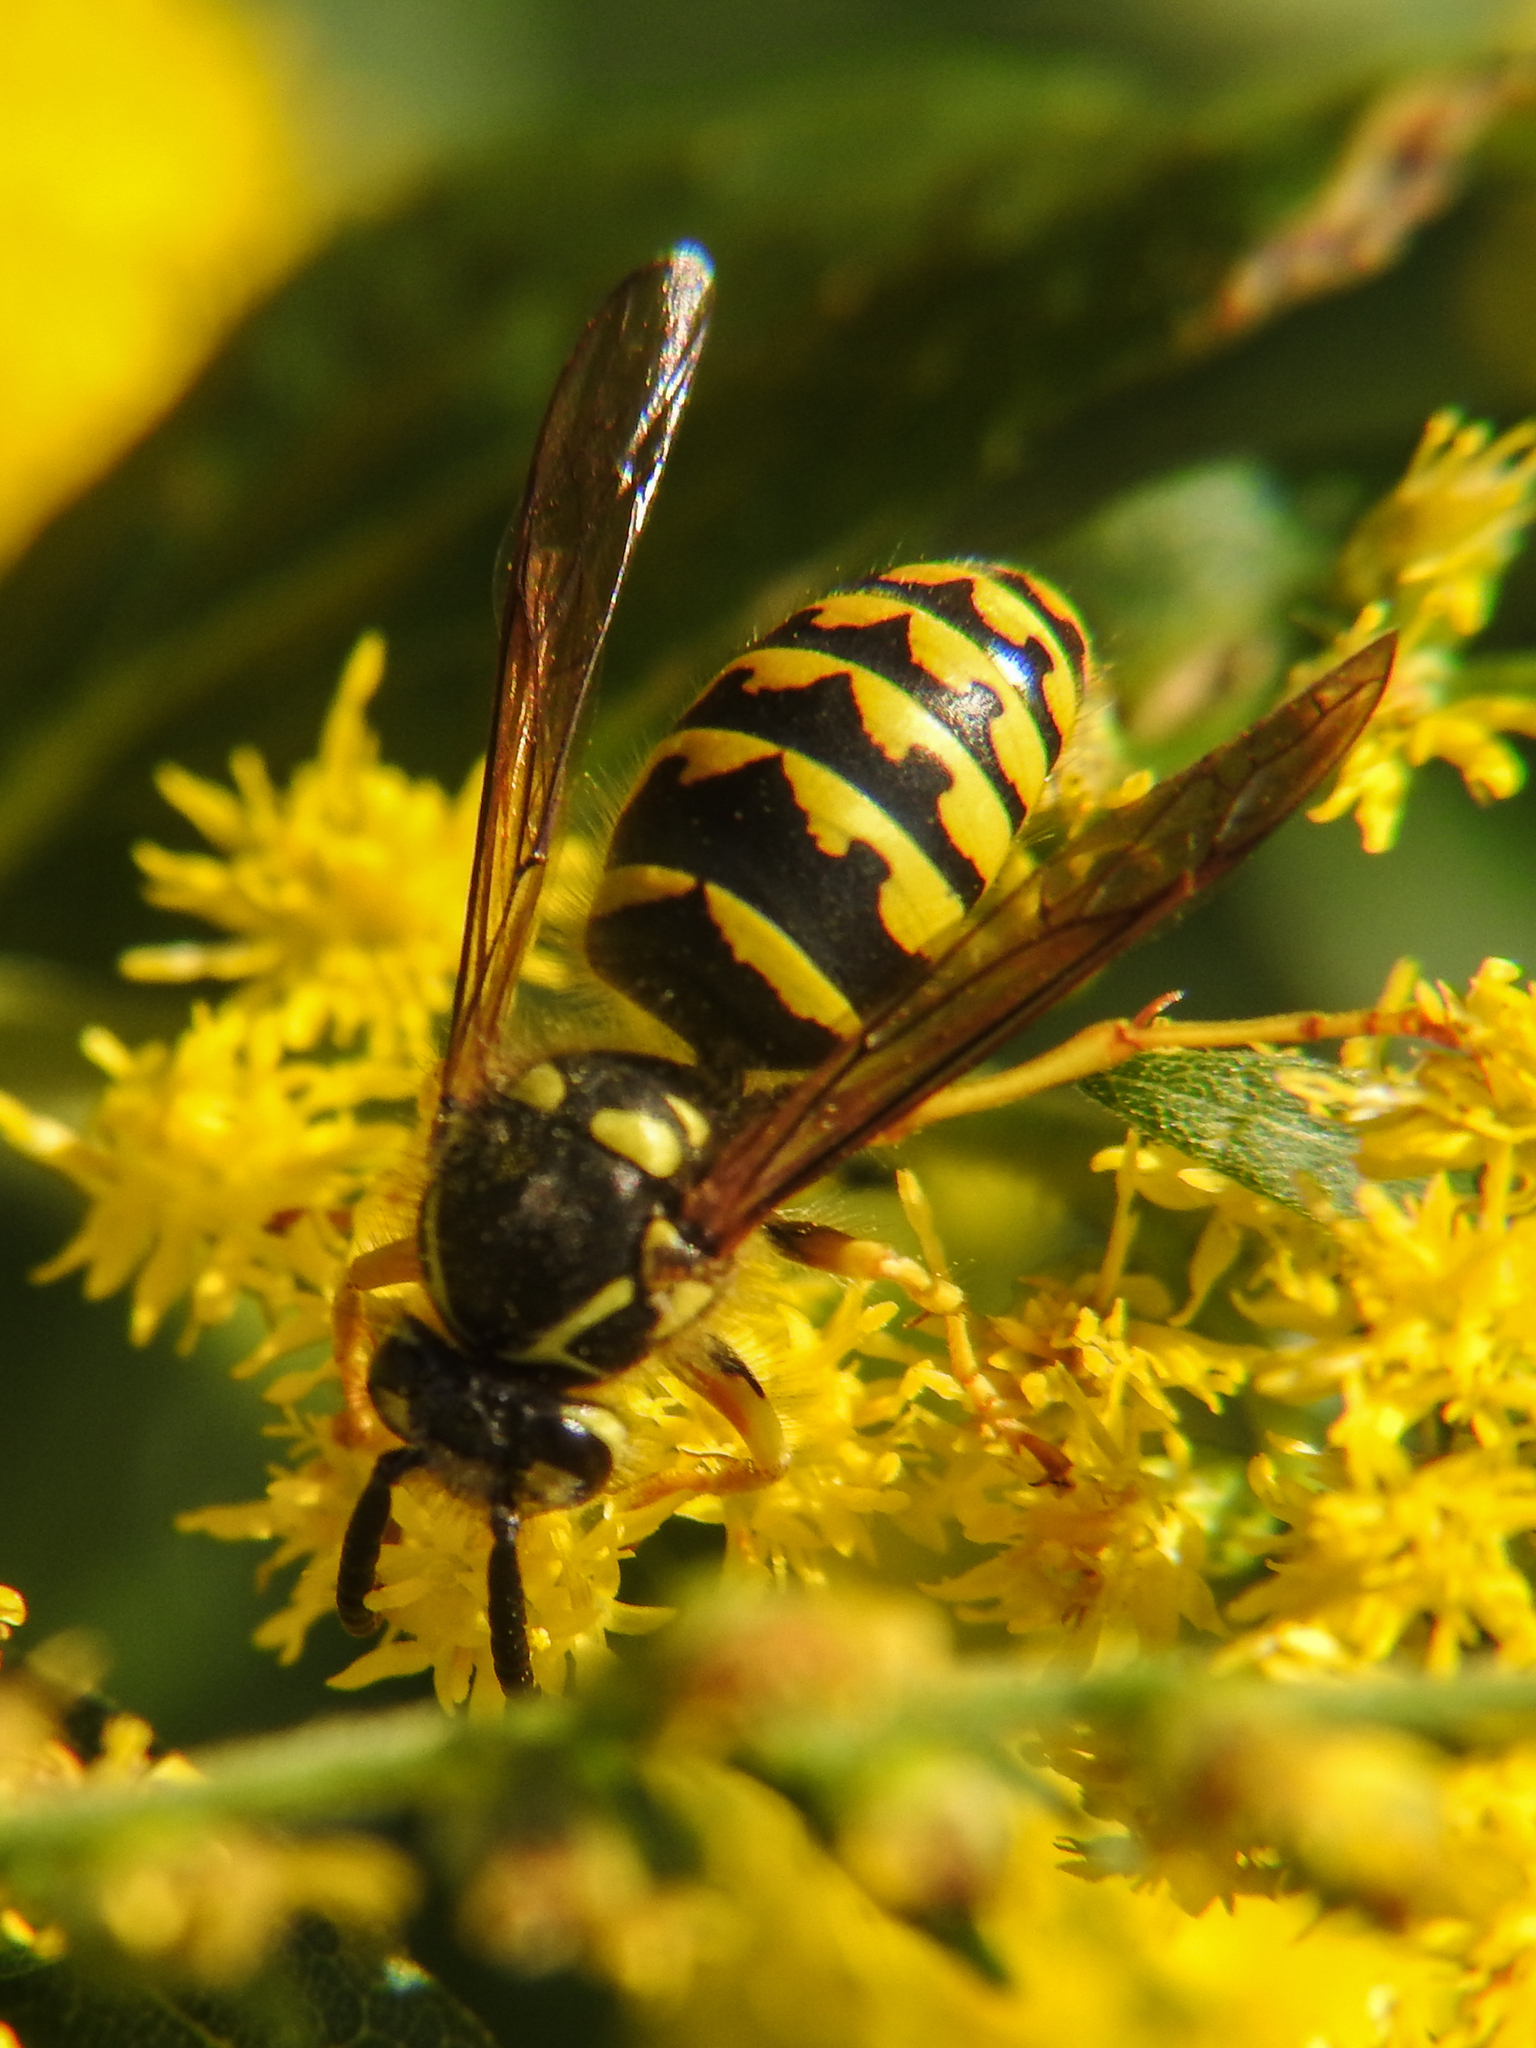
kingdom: Animalia
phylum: Arthropoda
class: Insecta
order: Hymenoptera
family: Vespidae
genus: Dolichovespula
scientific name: Dolichovespula arenaria
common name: Aerial yellowjacket
